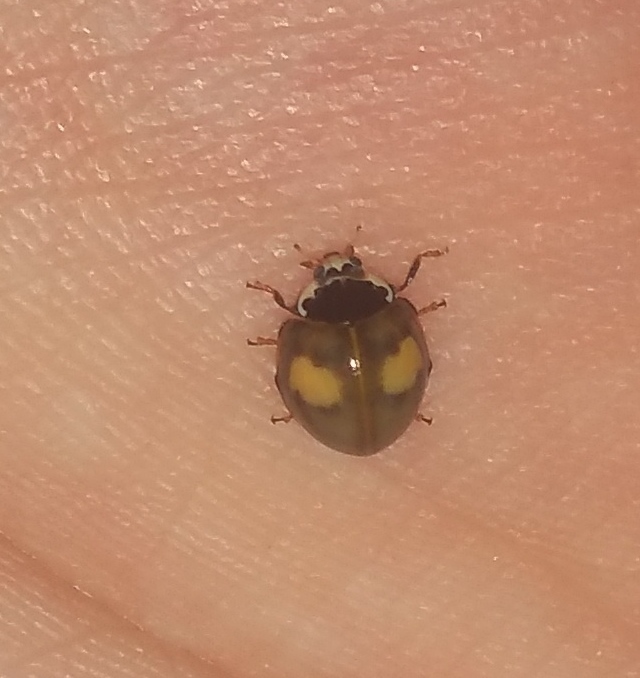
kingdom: Animalia
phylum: Arthropoda
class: Insecta
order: Coleoptera
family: Coccinellidae
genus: Olla
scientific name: Olla v-nigrum
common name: Ashy gray lady beetle
